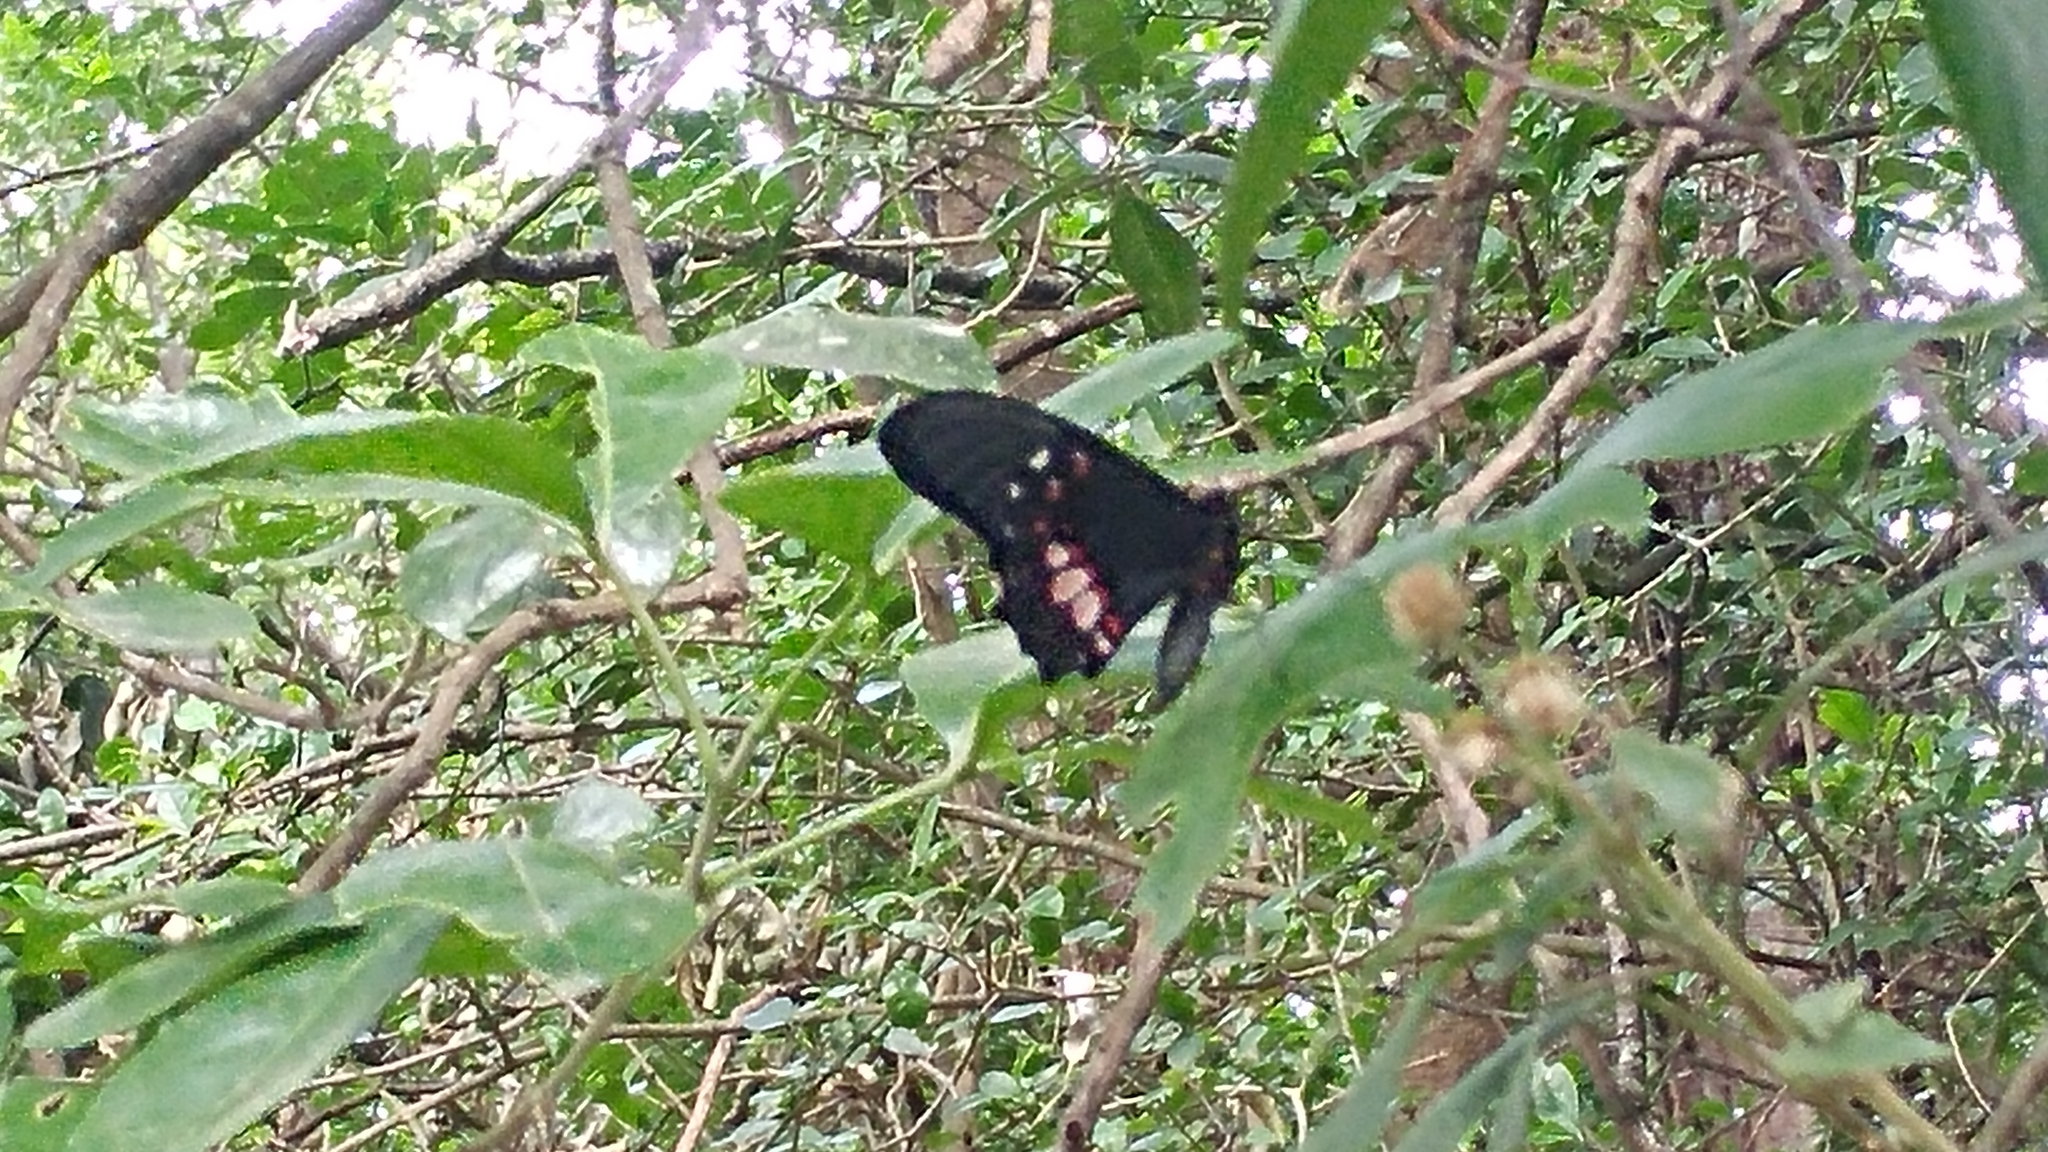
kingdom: Animalia
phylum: Arthropoda
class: Insecta
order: Lepidoptera
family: Papilionidae
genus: Papilio
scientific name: Papilio anchisiades
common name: Idaes swallowtail
